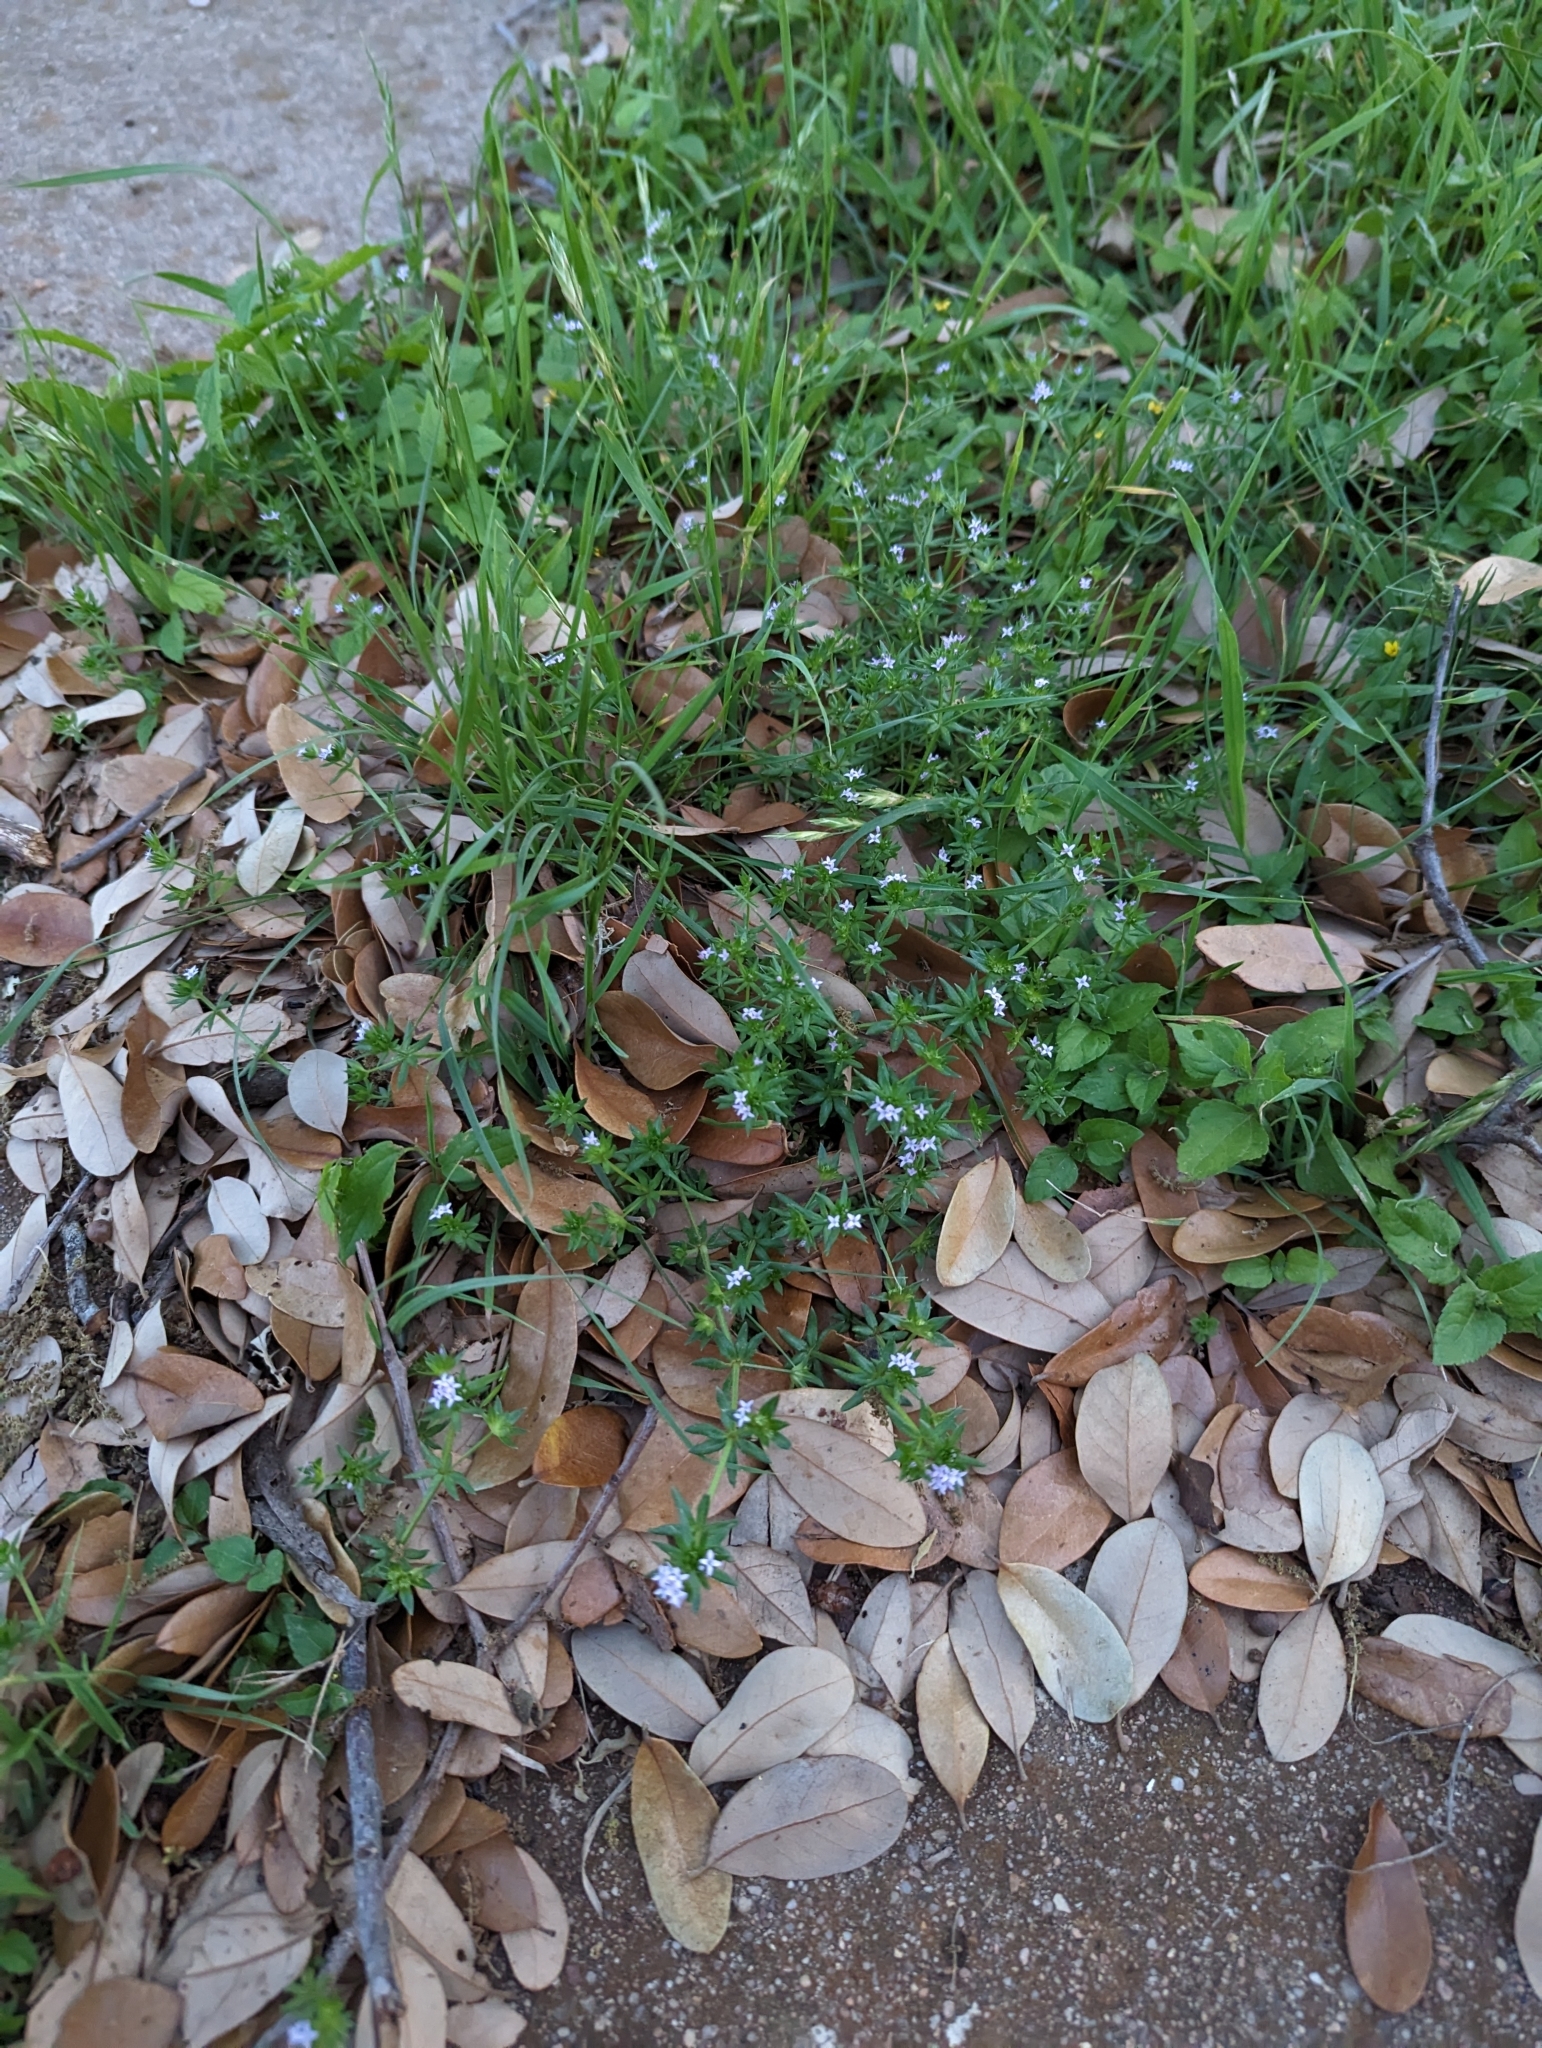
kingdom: Plantae
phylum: Tracheophyta
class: Magnoliopsida
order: Gentianales
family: Rubiaceae
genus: Sherardia
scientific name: Sherardia arvensis
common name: Field madder
